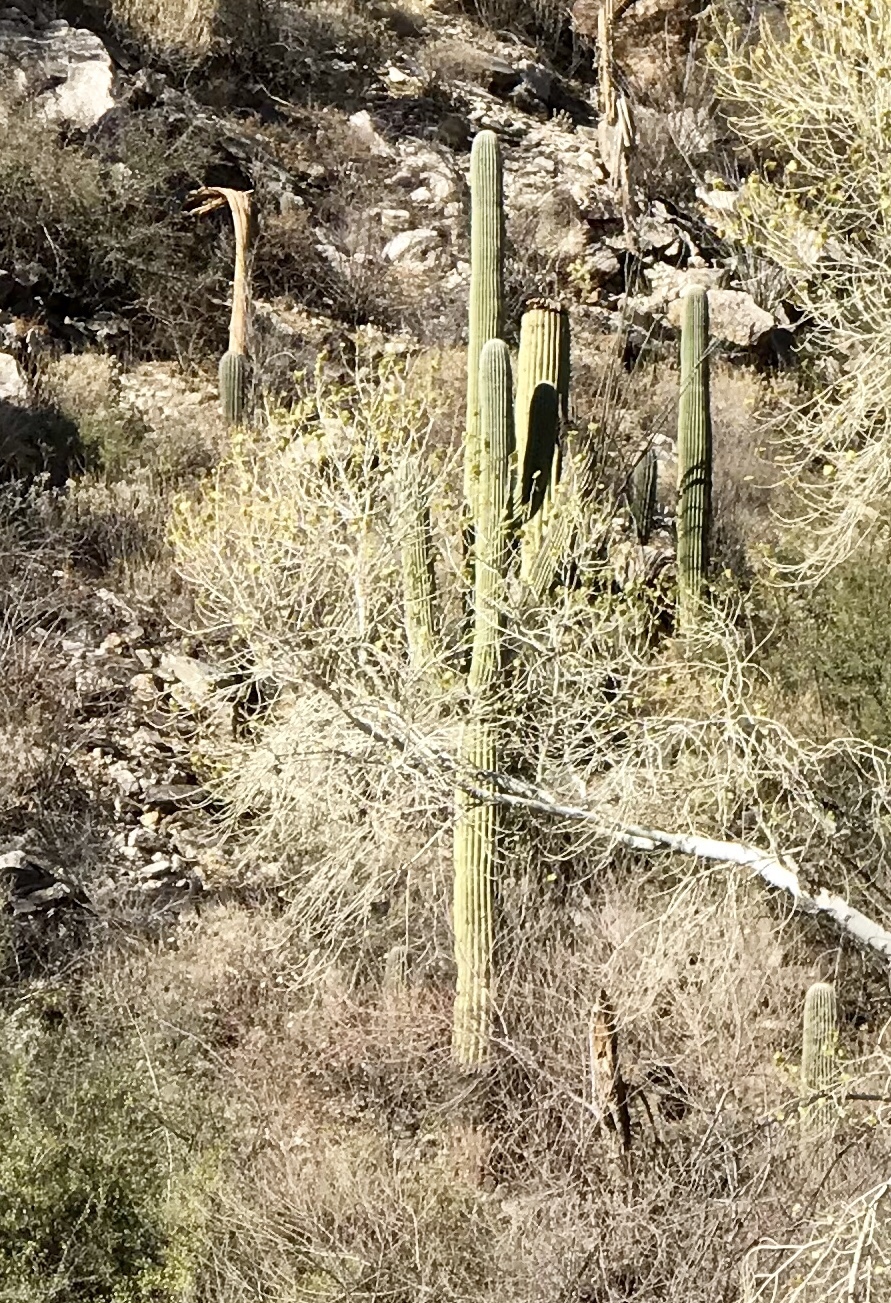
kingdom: Plantae
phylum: Tracheophyta
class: Magnoliopsida
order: Caryophyllales
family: Cactaceae
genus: Carnegiea
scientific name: Carnegiea gigantea
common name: Saguaro
